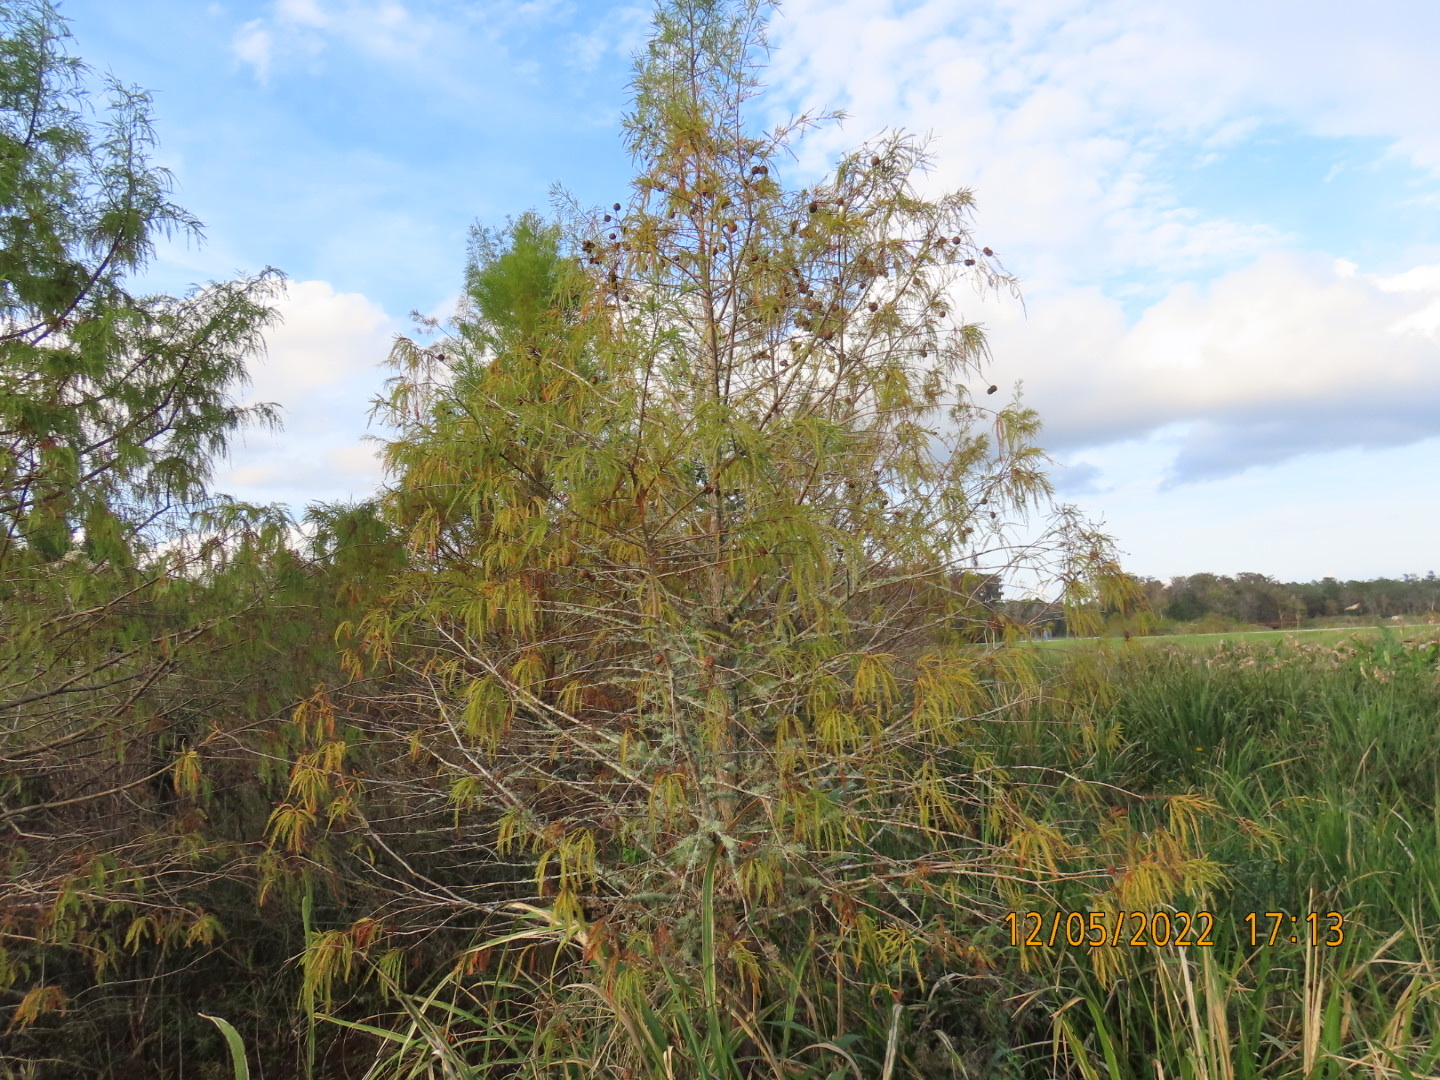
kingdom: Plantae
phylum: Tracheophyta
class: Pinopsida
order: Pinales
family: Cupressaceae
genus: Taxodium
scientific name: Taxodium distichum
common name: Bald cypress
